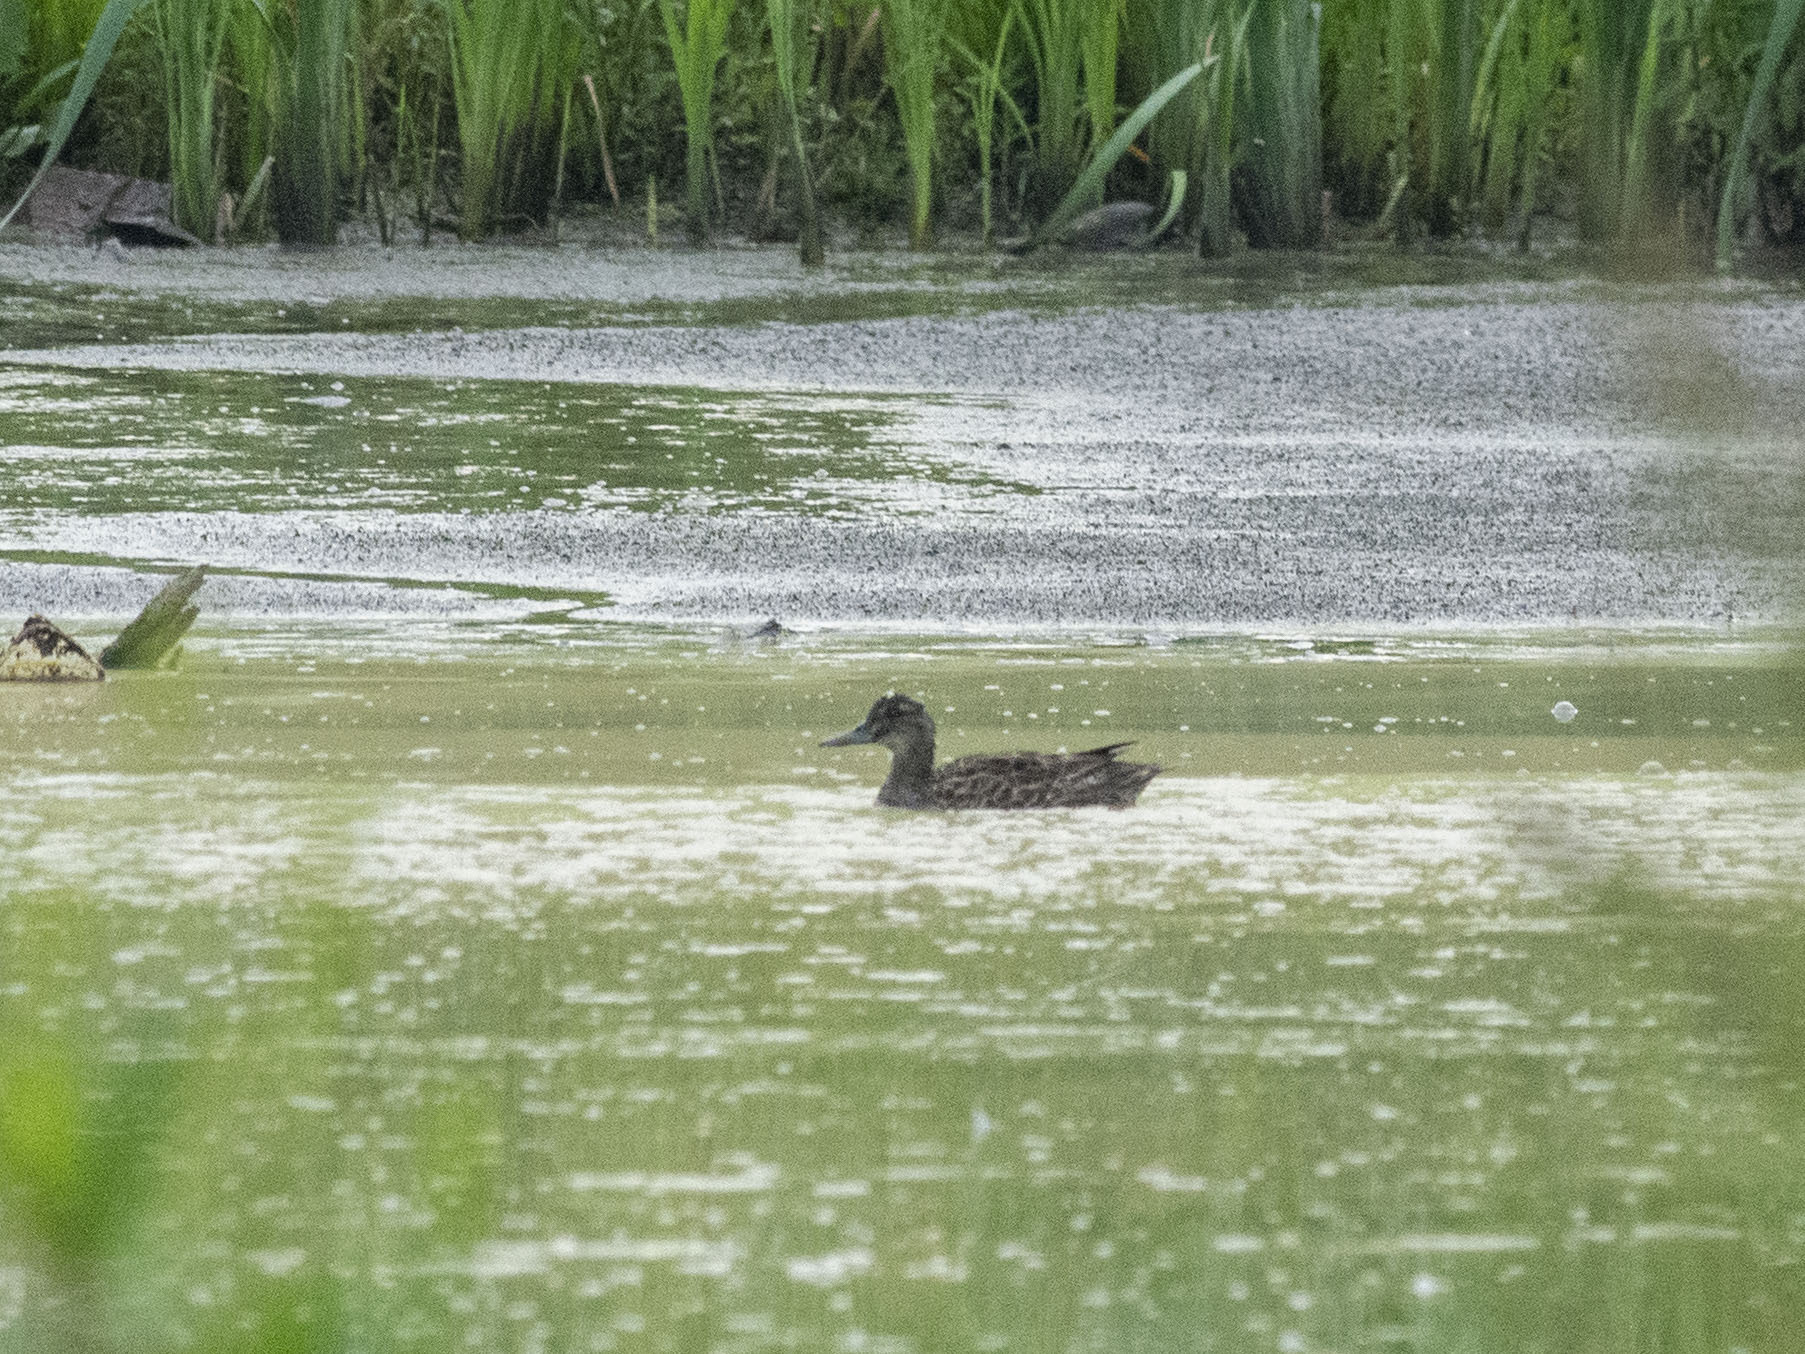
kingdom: Animalia
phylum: Chordata
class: Aves
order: Anseriformes
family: Anatidae
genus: Spatula
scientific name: Spatula querquedula
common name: Garganey
